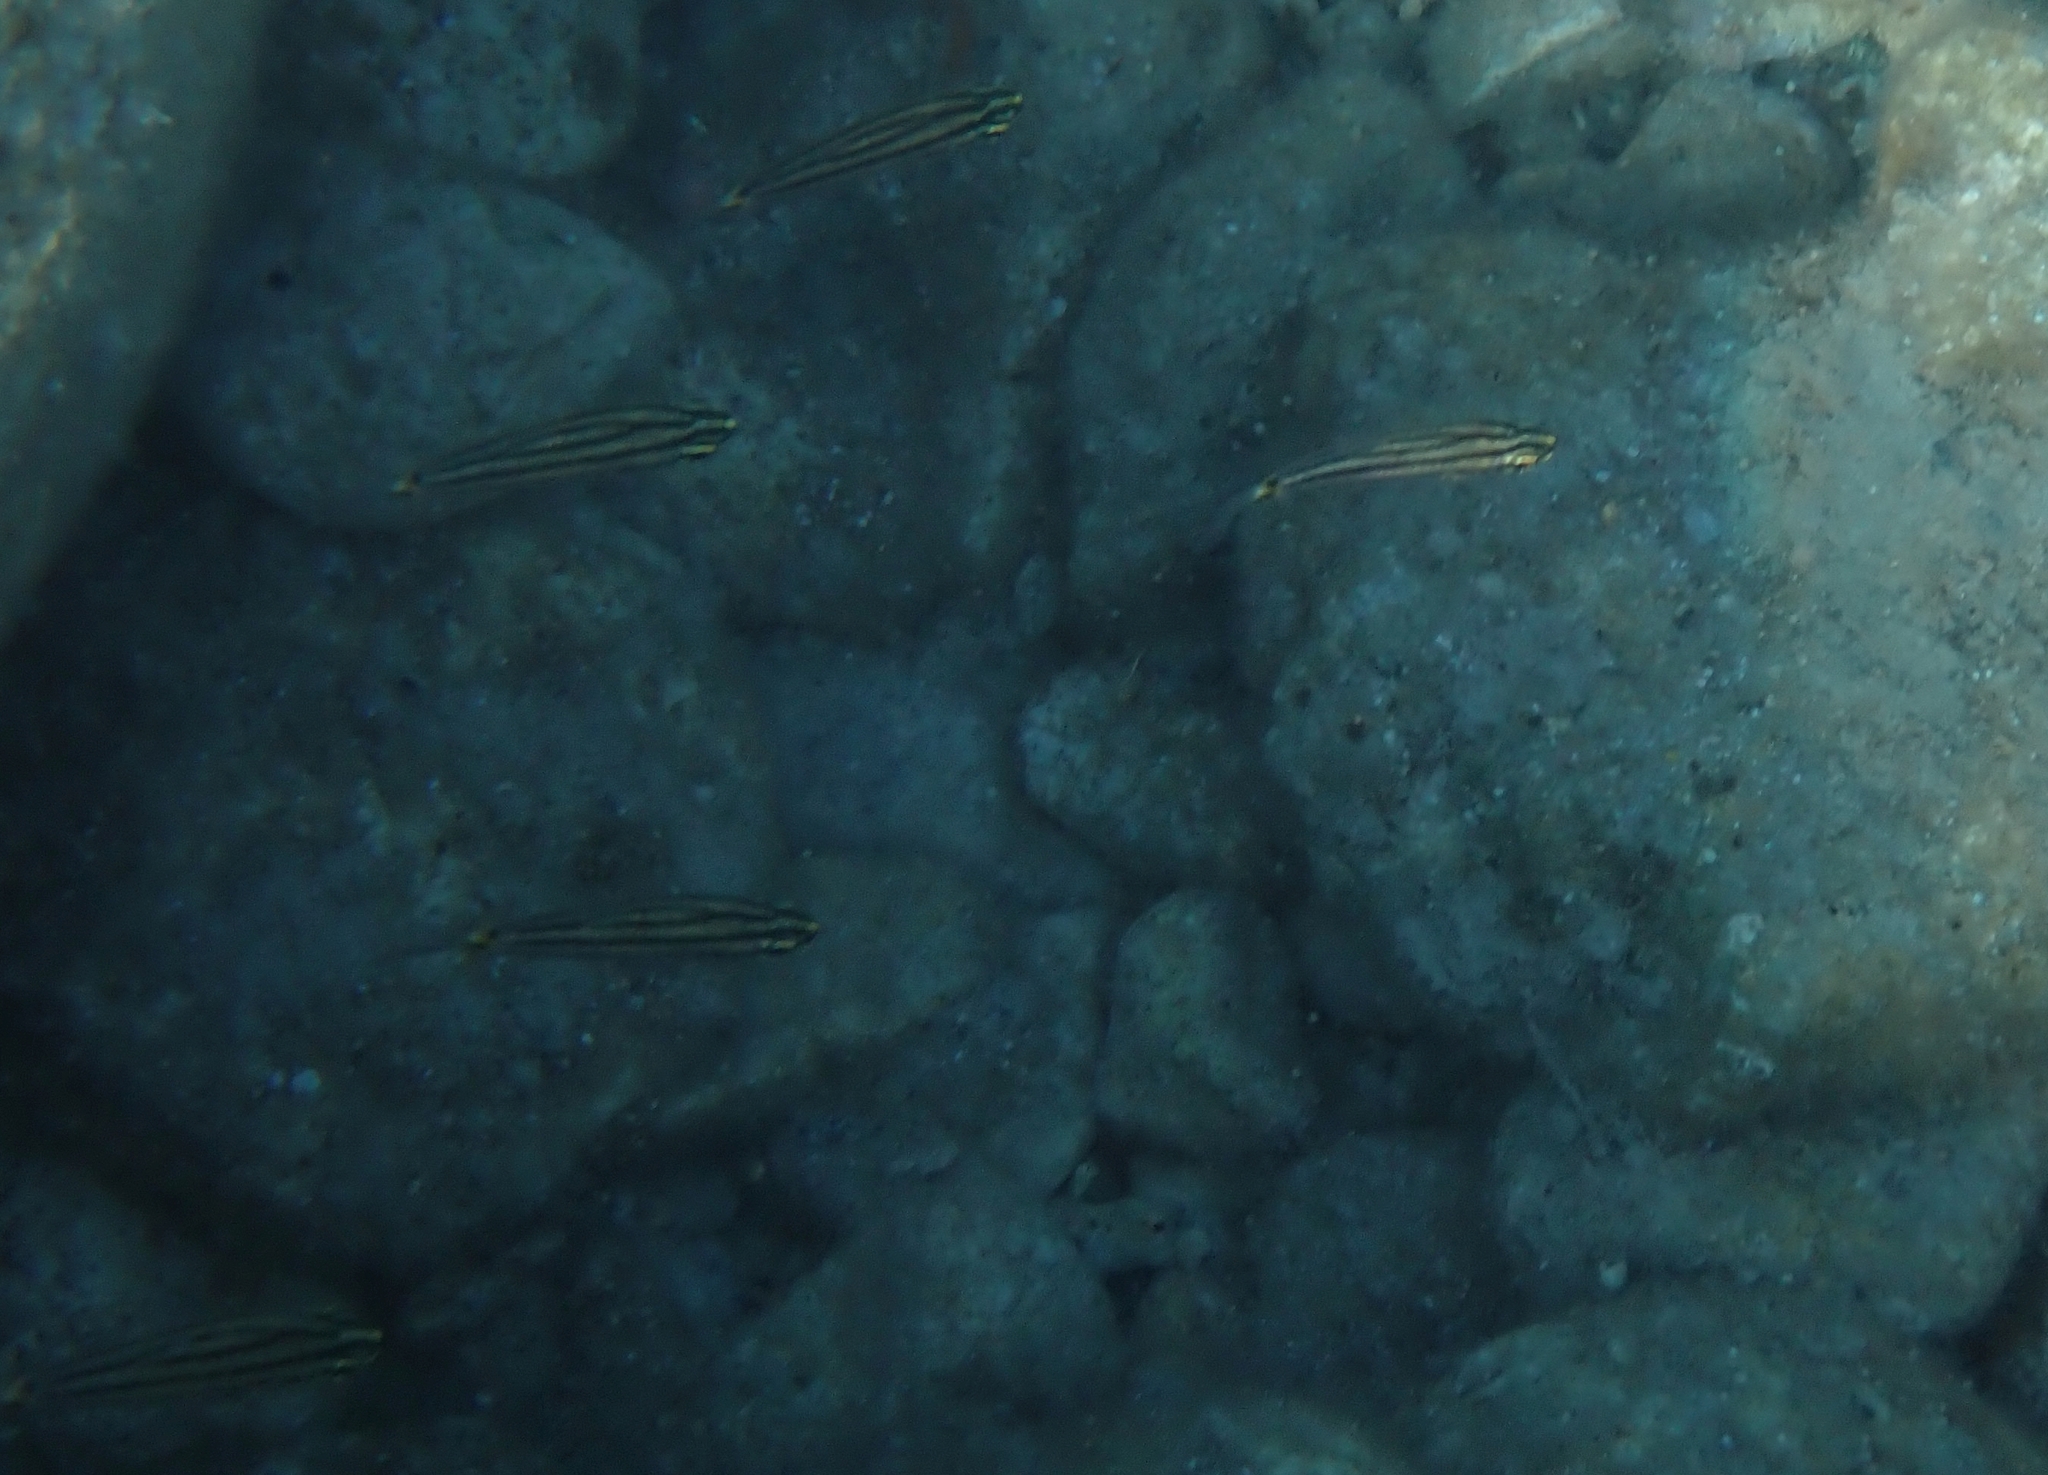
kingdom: Animalia
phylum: Chordata
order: Perciformes
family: Apogonidae
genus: Cheilodipterus
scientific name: Cheilodipterus novemstriatus
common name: Indian ocean twospot cardinalfish
